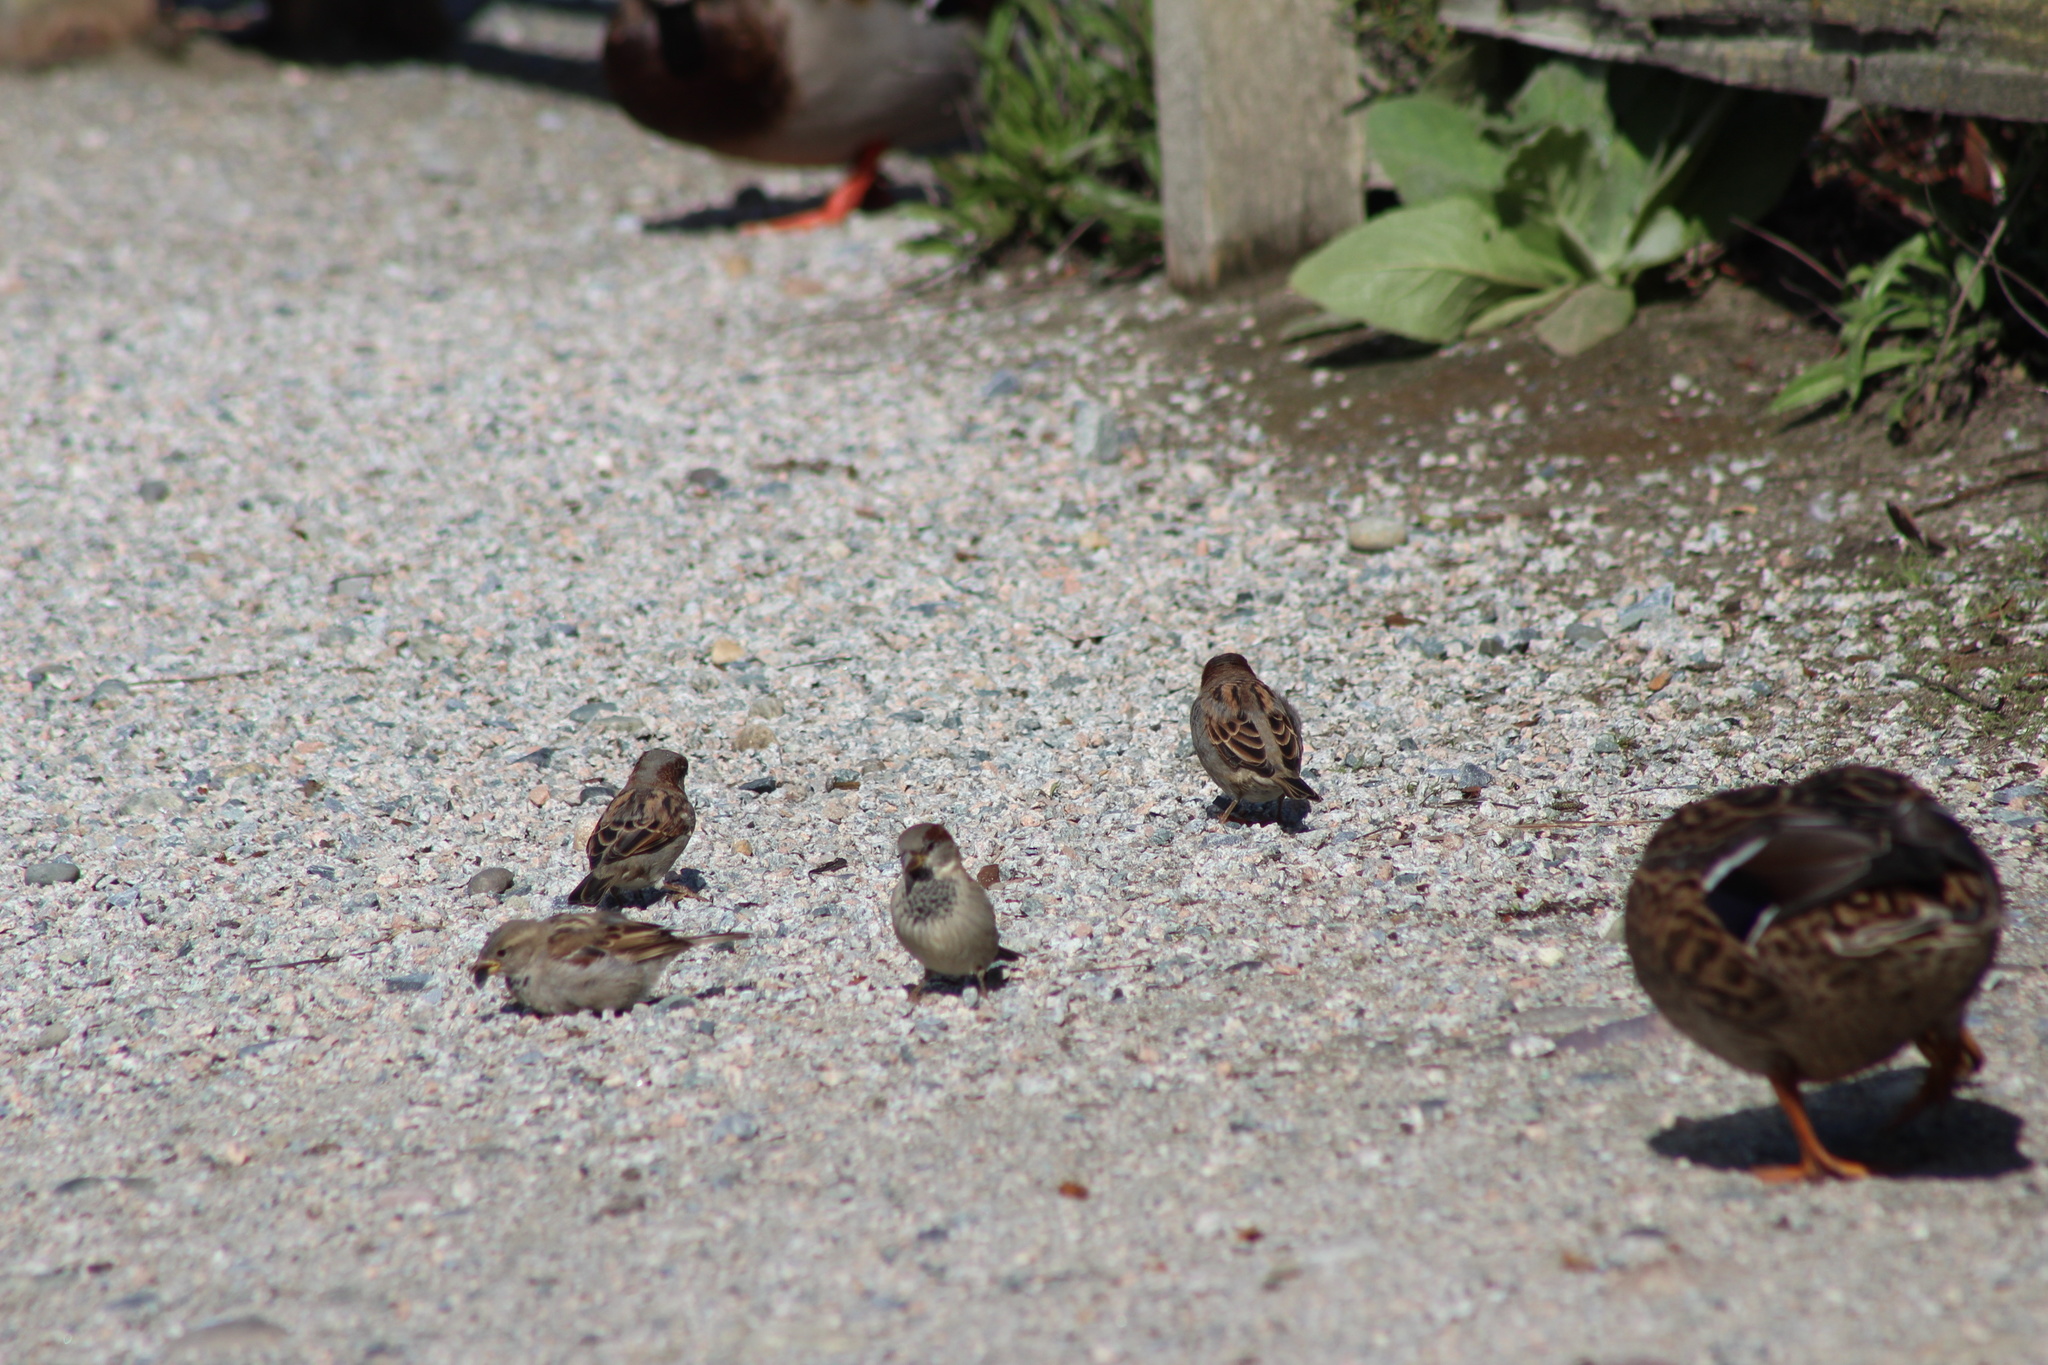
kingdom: Animalia
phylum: Chordata
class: Aves
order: Passeriformes
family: Passeridae
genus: Passer
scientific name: Passer domesticus
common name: House sparrow
